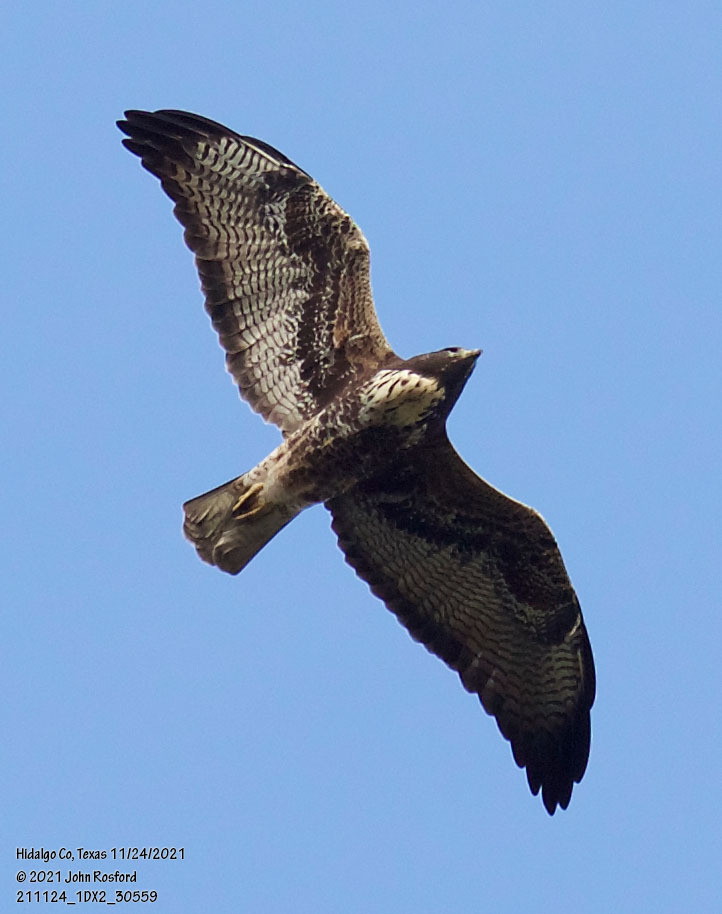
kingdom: Animalia
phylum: Chordata
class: Aves
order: Accipitriformes
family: Accipitridae
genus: Buteo
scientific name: Buteo albicaudatus
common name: White-tailed hawk
